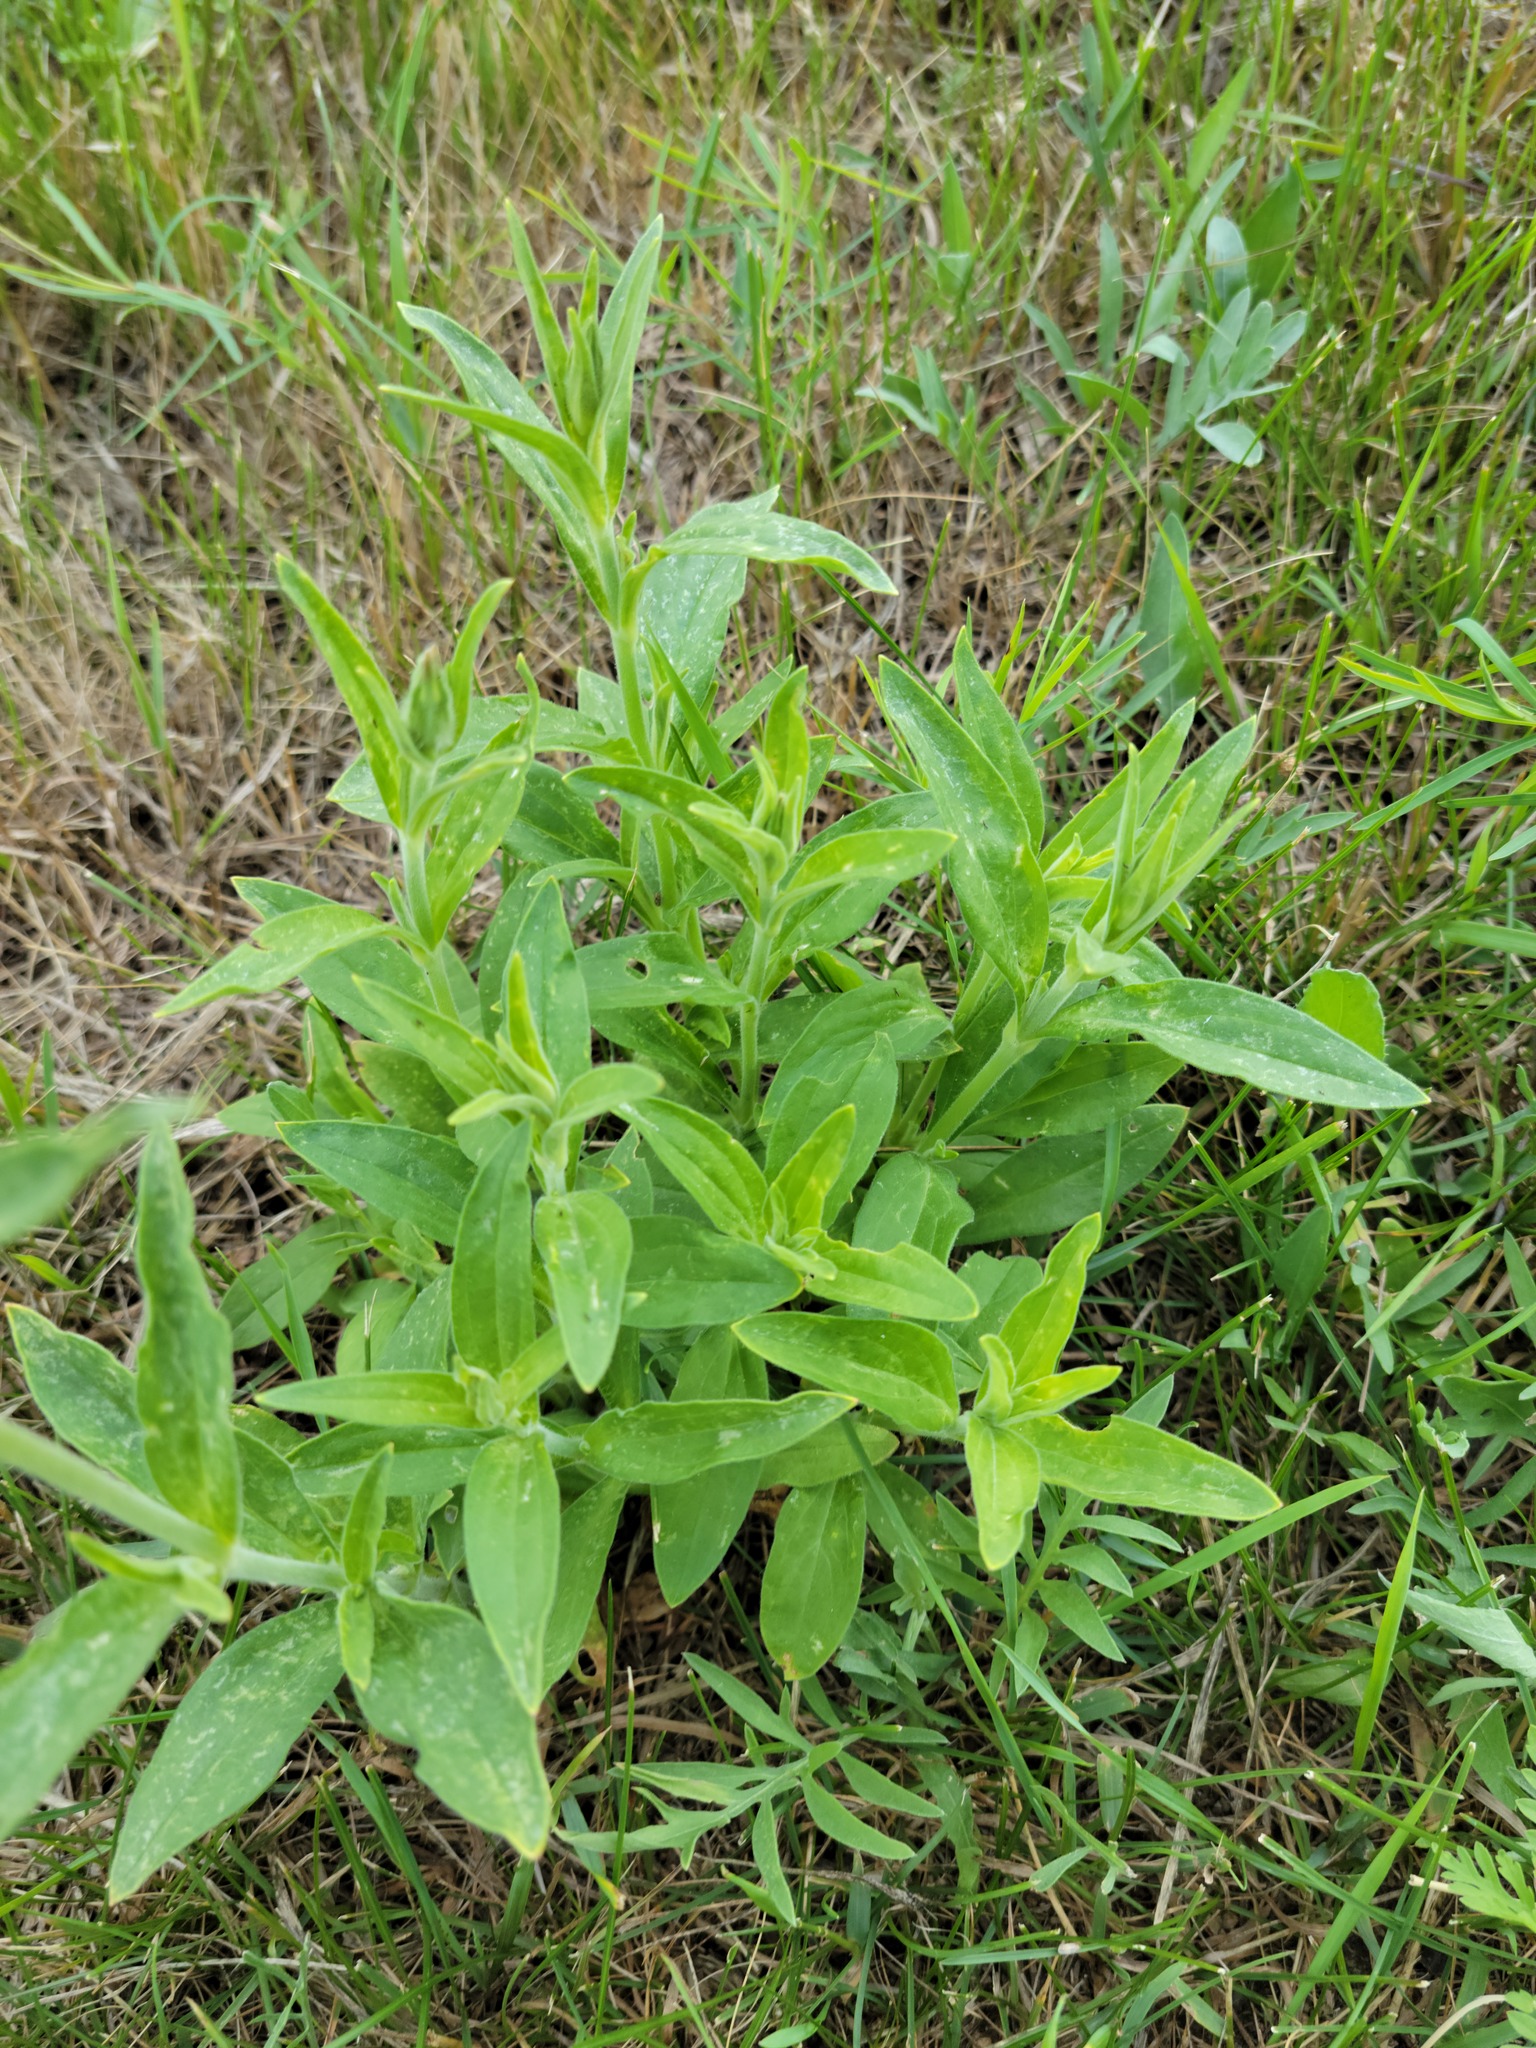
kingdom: Plantae
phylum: Tracheophyta
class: Magnoliopsida
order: Caryophyllales
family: Caryophyllaceae
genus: Silene
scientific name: Silene latifolia
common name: White campion
